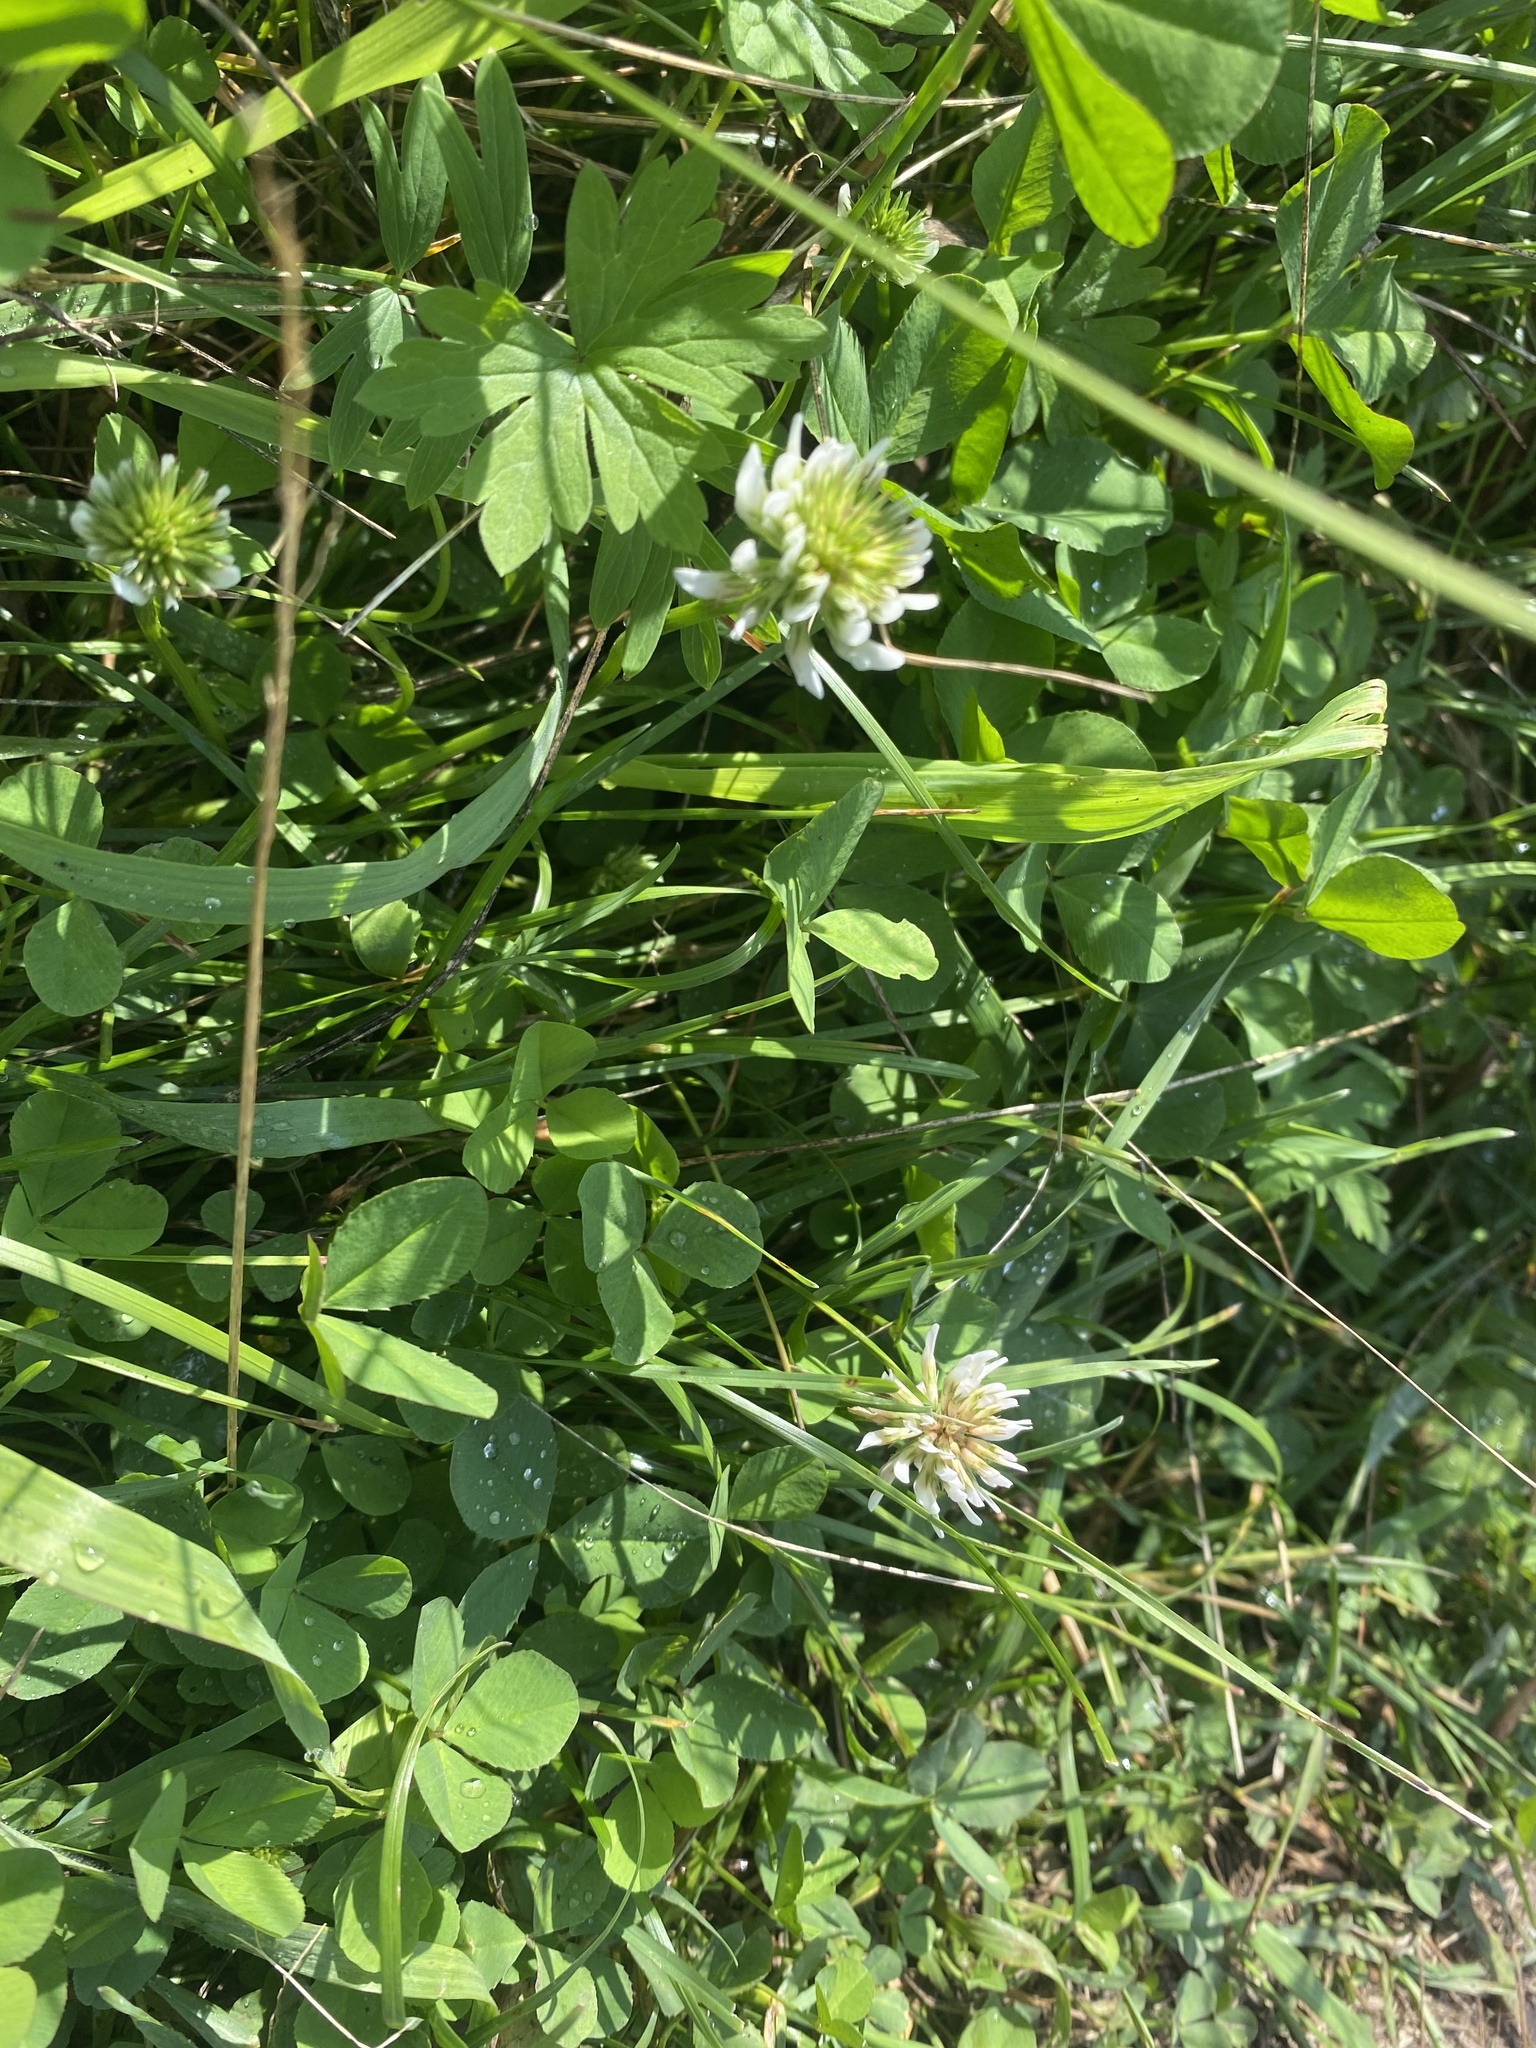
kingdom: Plantae
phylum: Tracheophyta
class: Magnoliopsida
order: Fabales
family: Fabaceae
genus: Trifolium
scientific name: Trifolium repens
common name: White clover
